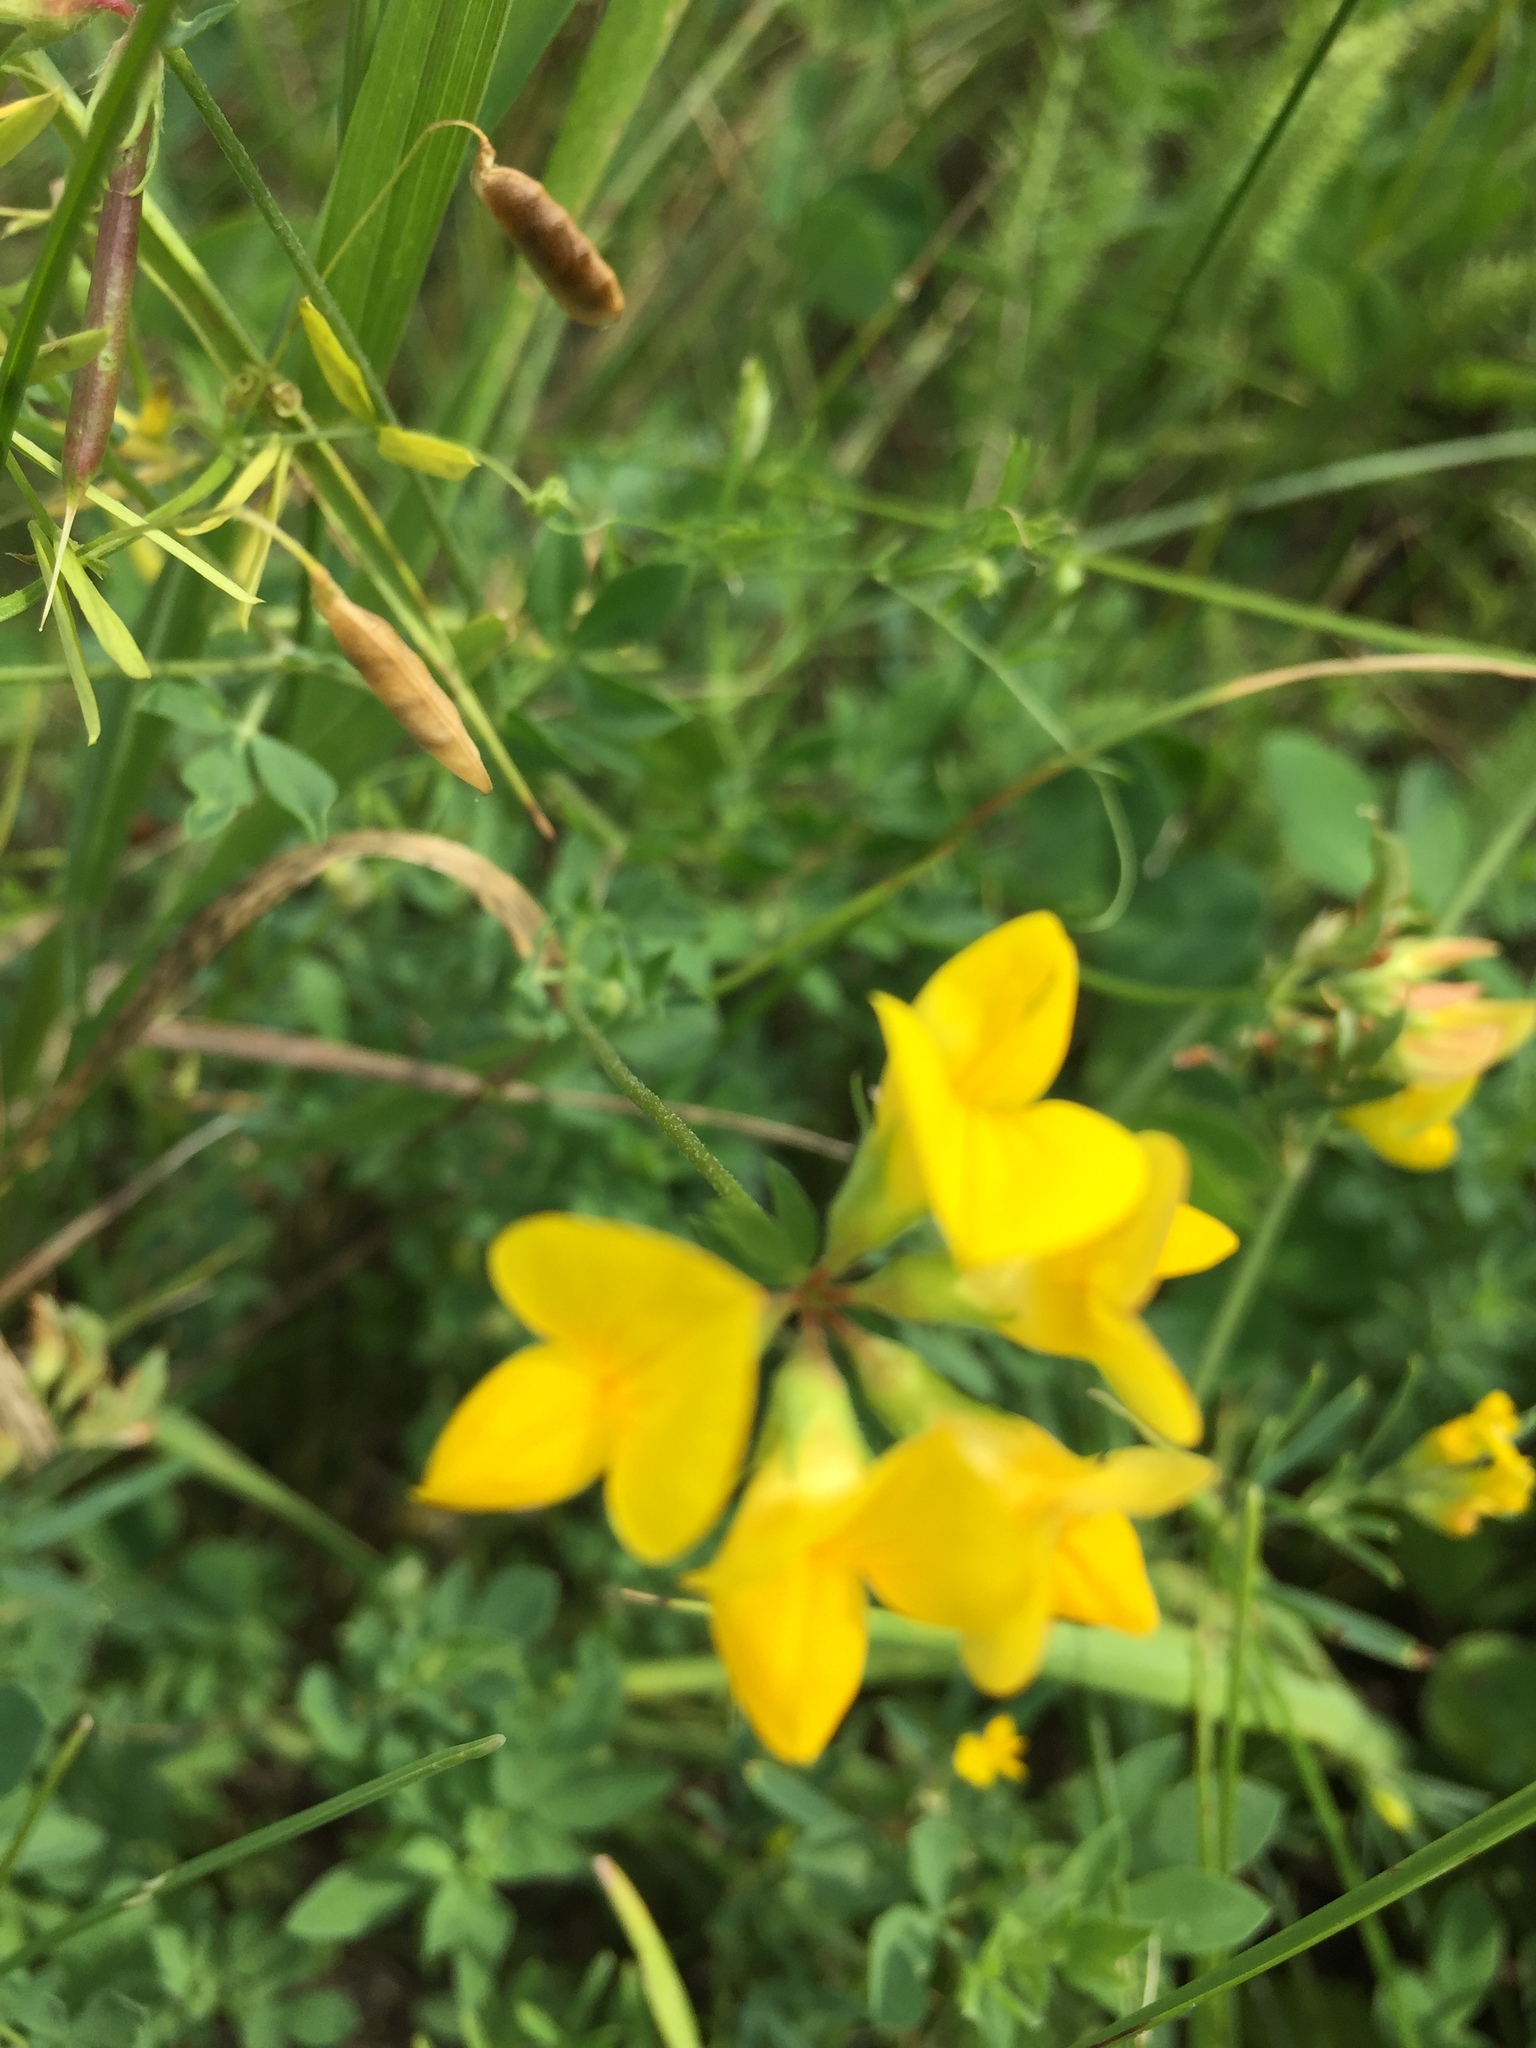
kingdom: Plantae
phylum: Tracheophyta
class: Magnoliopsida
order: Fabales
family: Fabaceae
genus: Lotus
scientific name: Lotus corniculatus
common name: Common bird's-foot-trefoil
